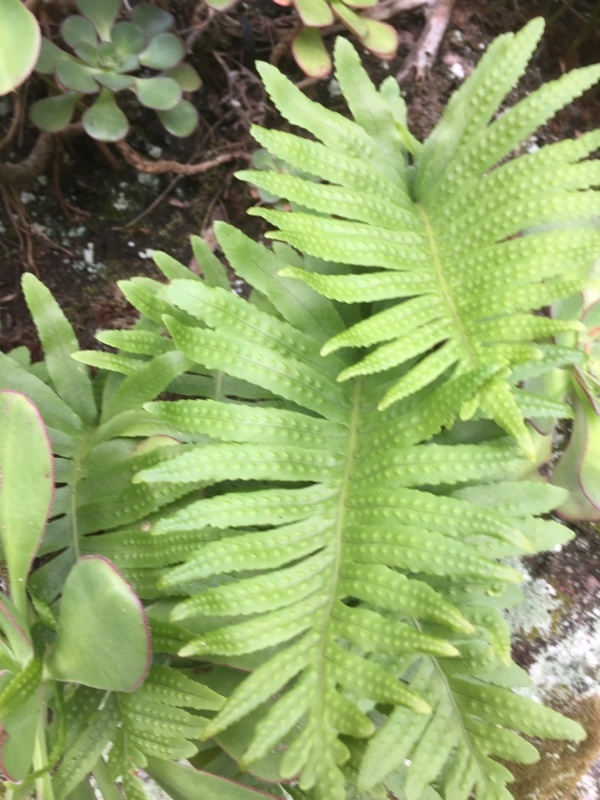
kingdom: Plantae
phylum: Tracheophyta
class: Polypodiopsida
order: Polypodiales
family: Polypodiaceae
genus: Polypodium
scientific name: Polypodium macaronesicum
